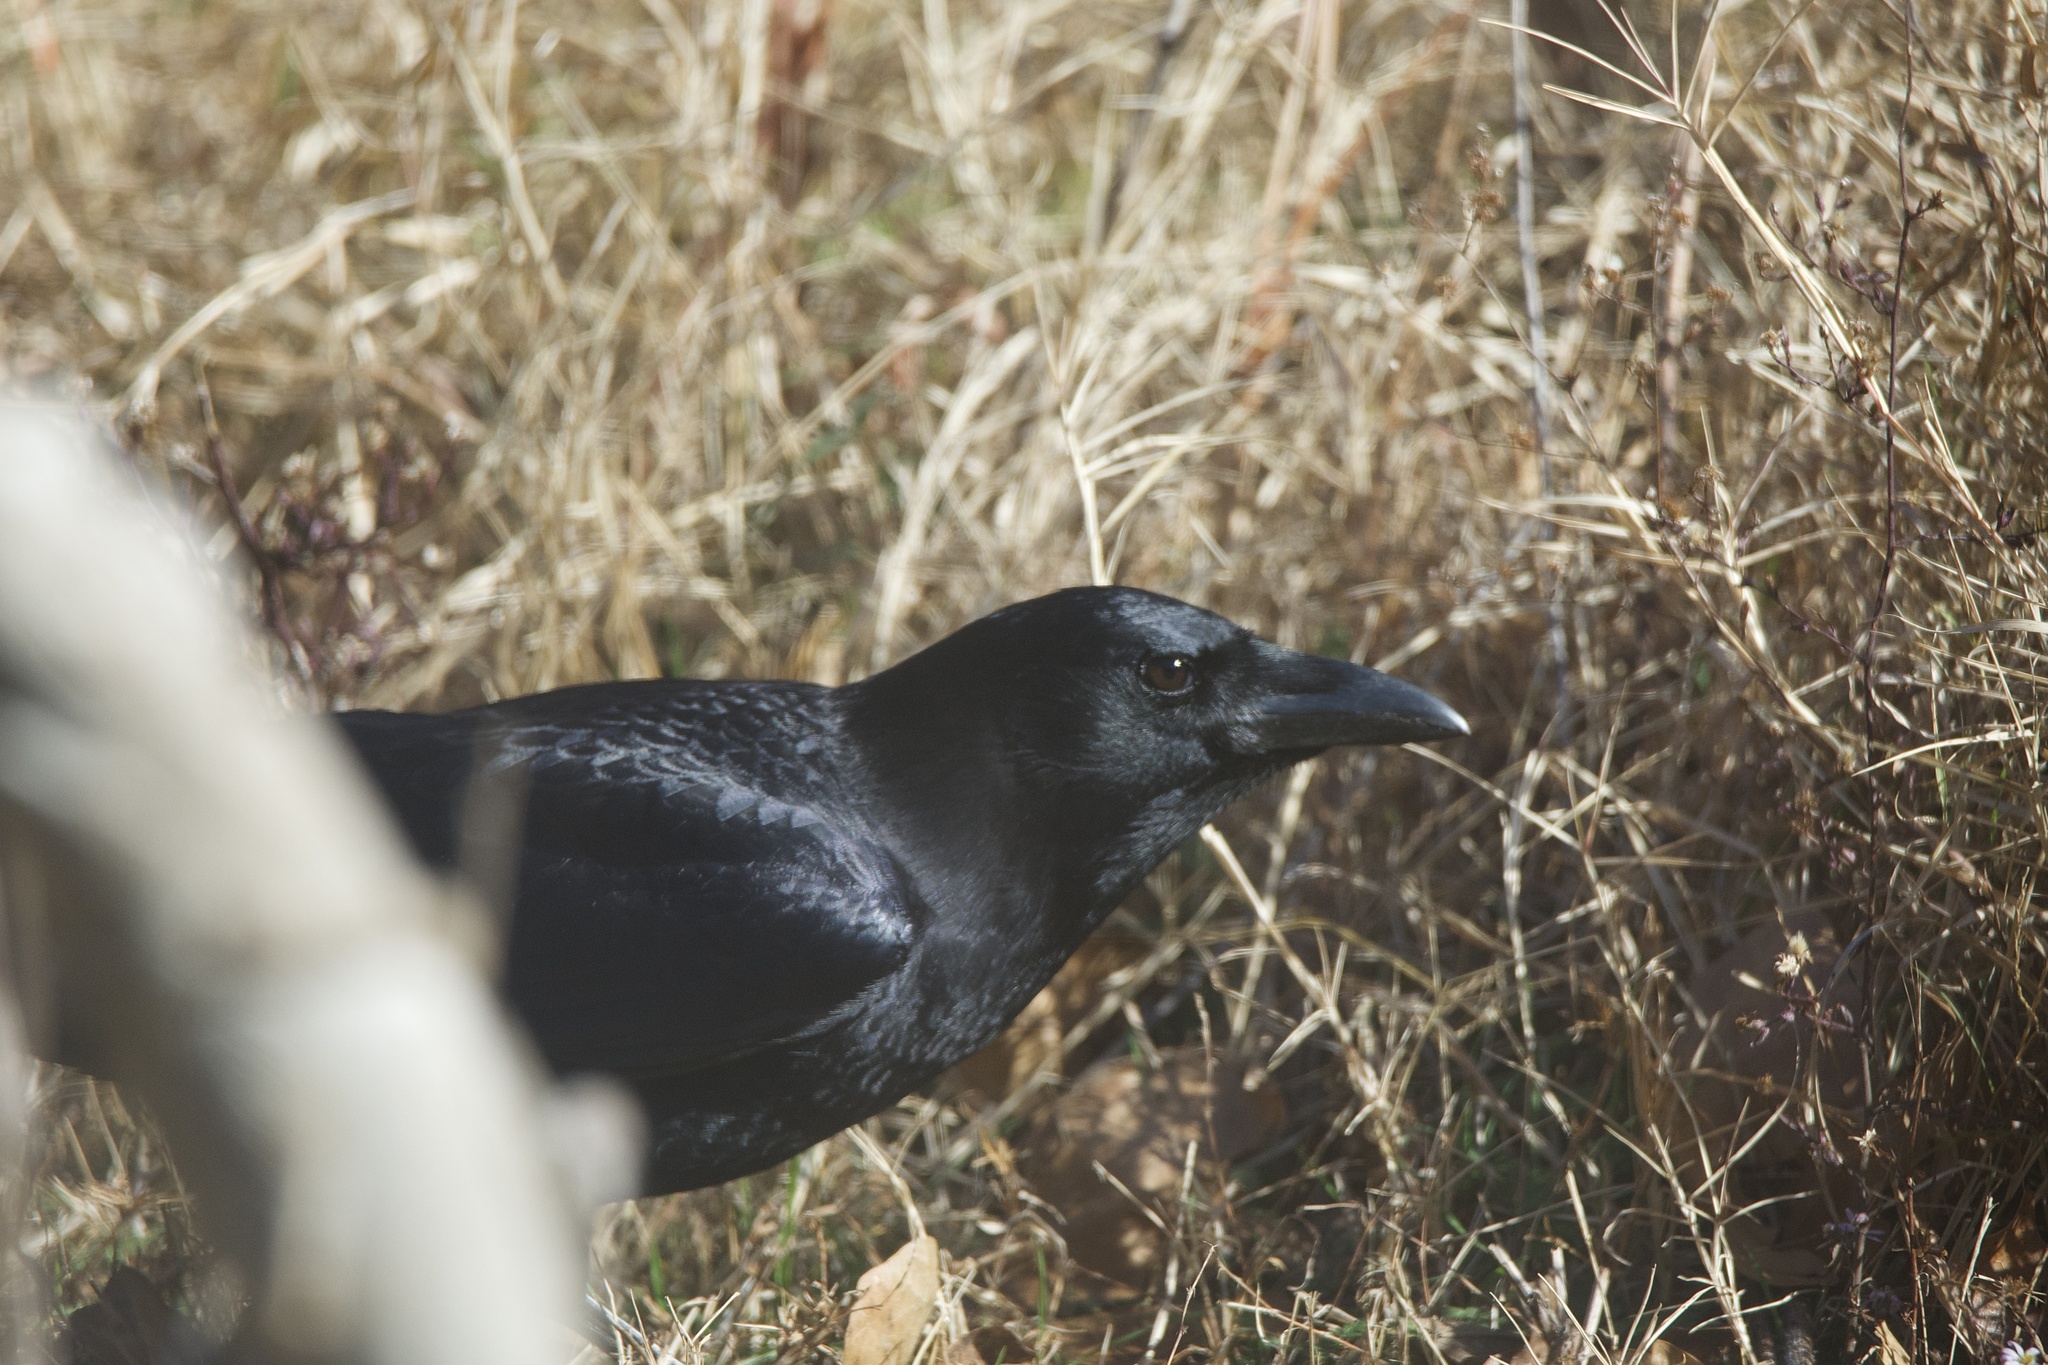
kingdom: Animalia
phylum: Chordata
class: Aves
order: Passeriformes
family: Corvidae
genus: Corvus
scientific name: Corvus brachyrhynchos
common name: American crow
